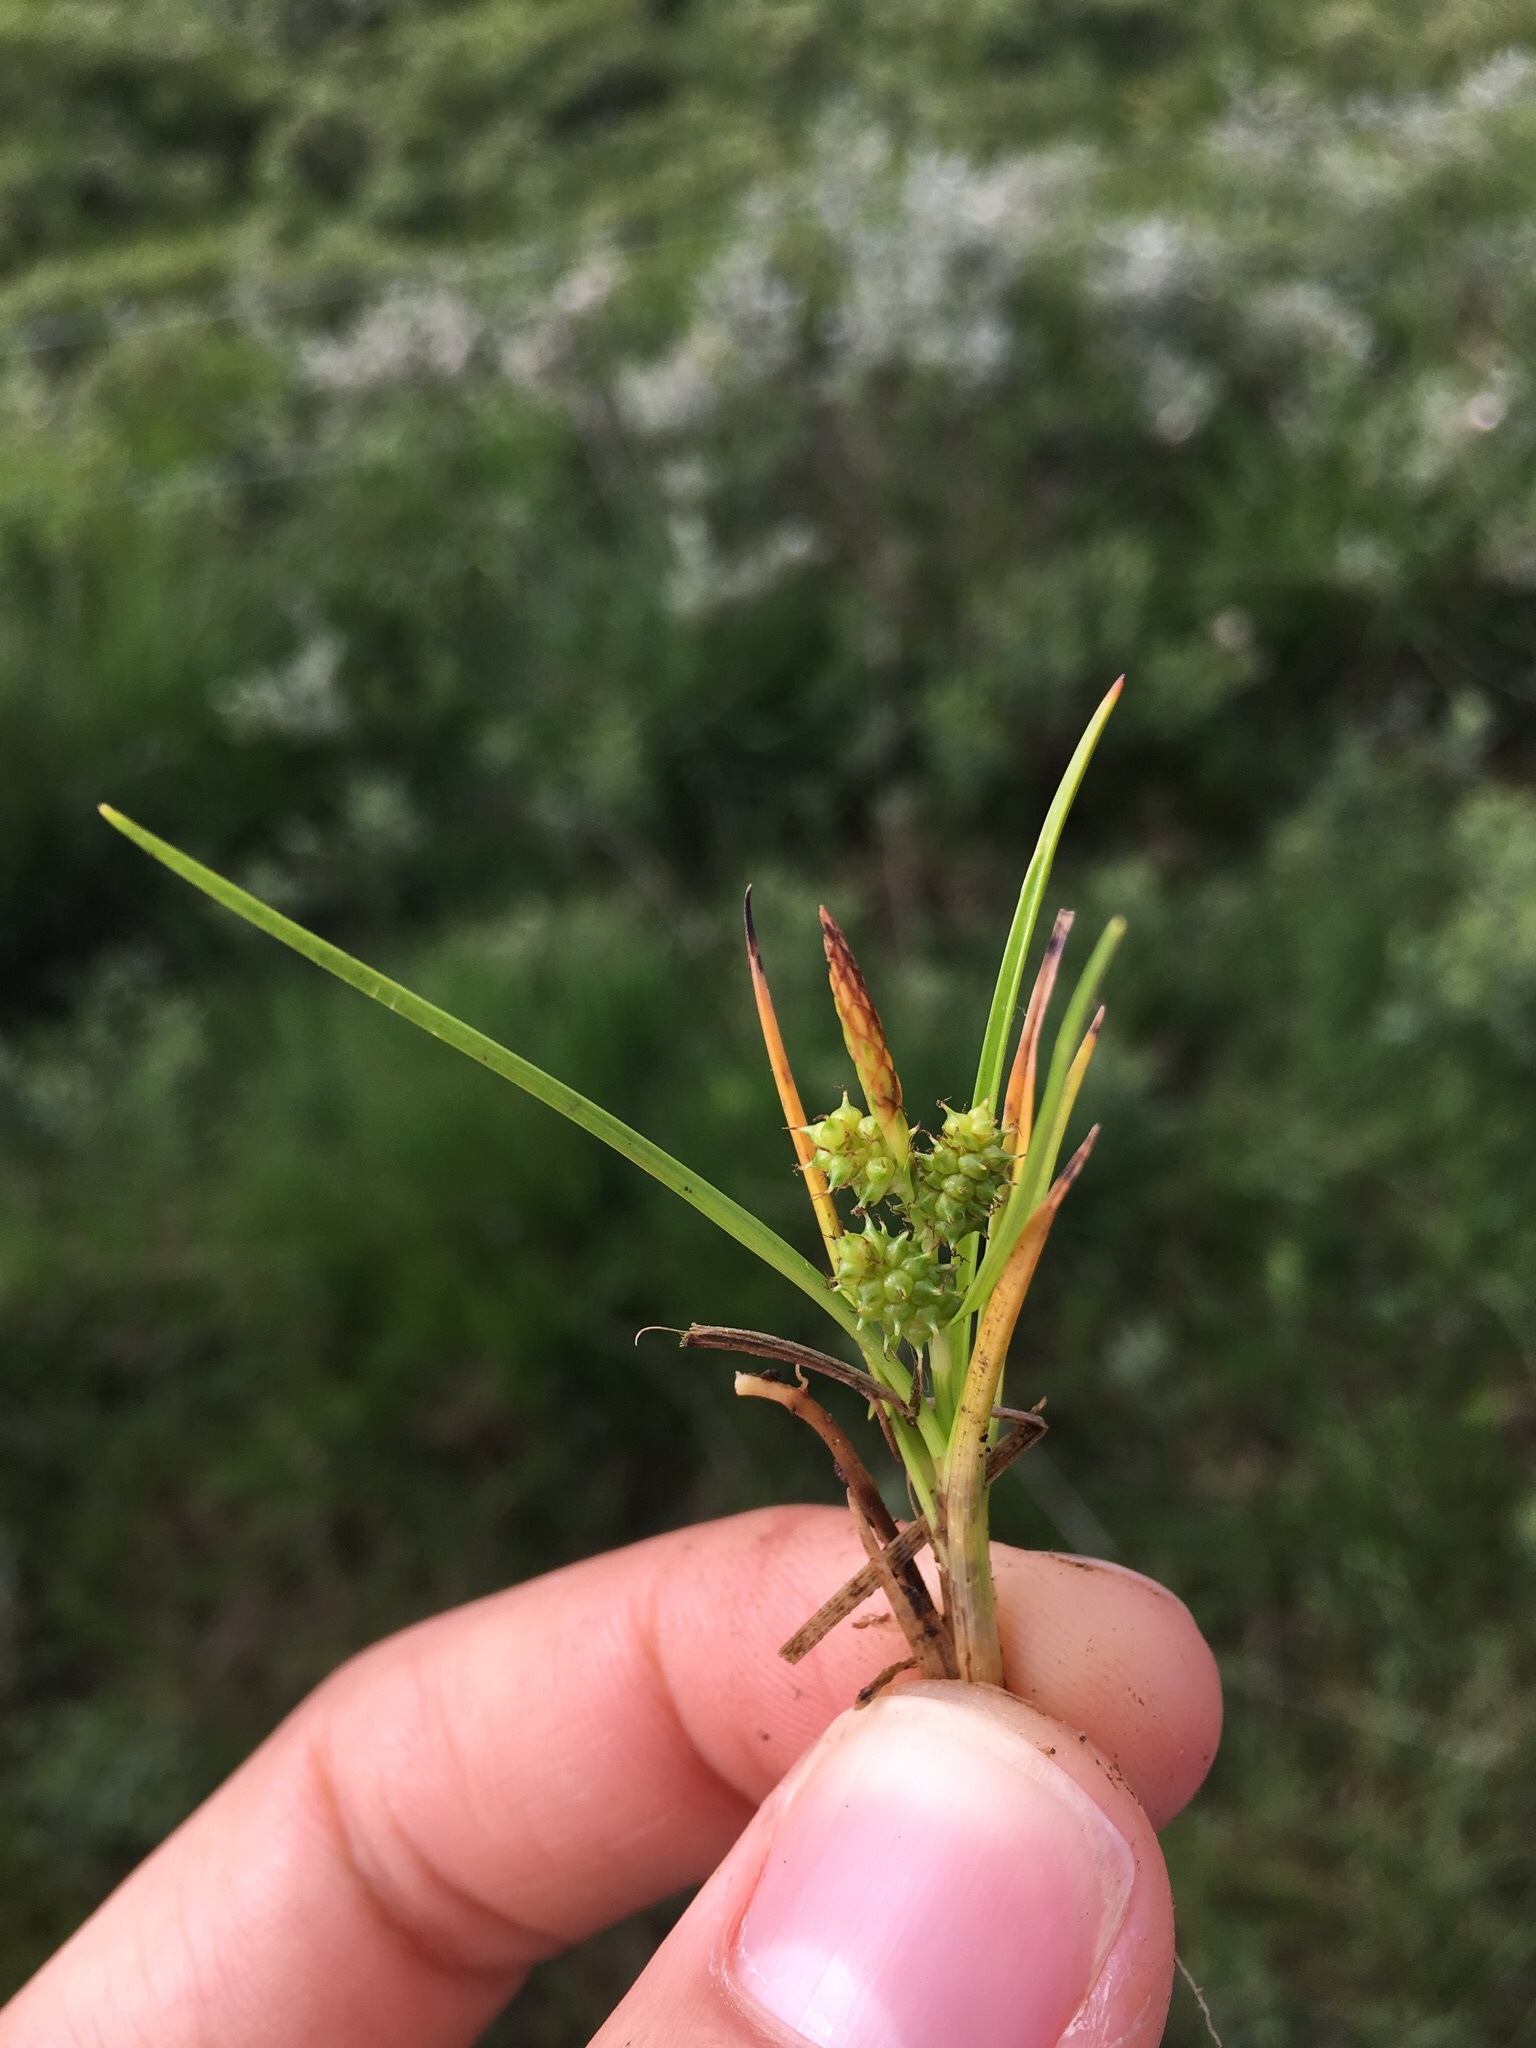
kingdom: Plantae
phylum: Tracheophyta
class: Liliopsida
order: Poales
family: Cyperaceae
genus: Carex
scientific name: Carex oederi
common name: Common & small-fruited yellow-sedge
